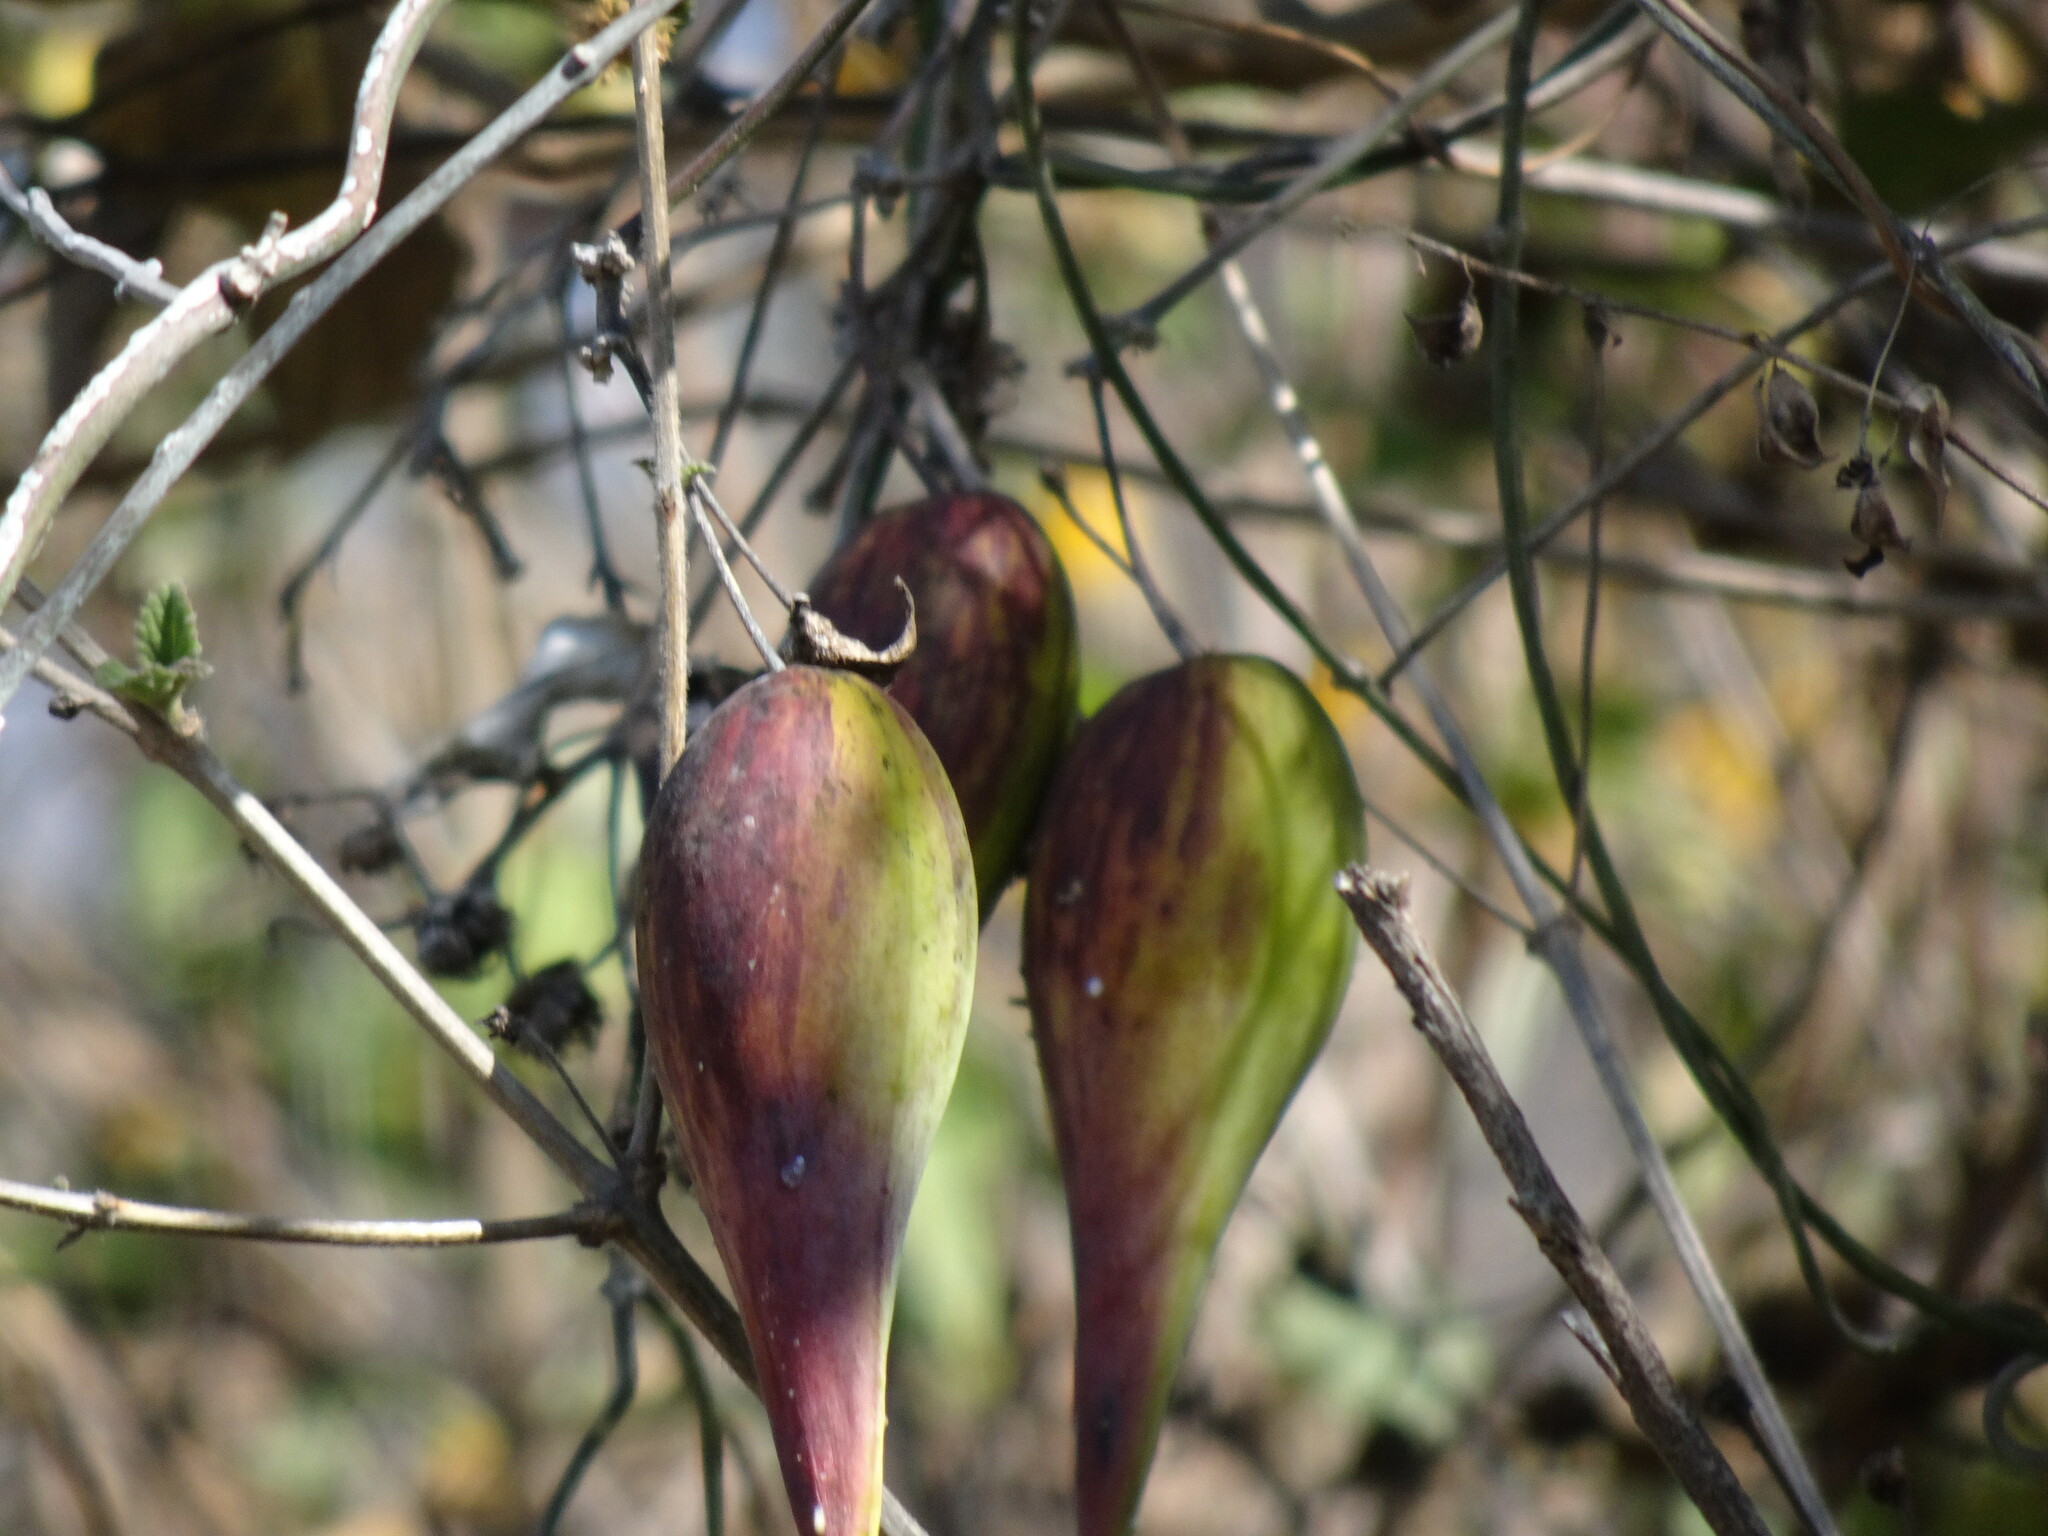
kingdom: Plantae
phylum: Tracheophyta
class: Magnoliopsida
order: Gentianales
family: Apocynaceae
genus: Funastrum
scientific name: Funastrum elegans
